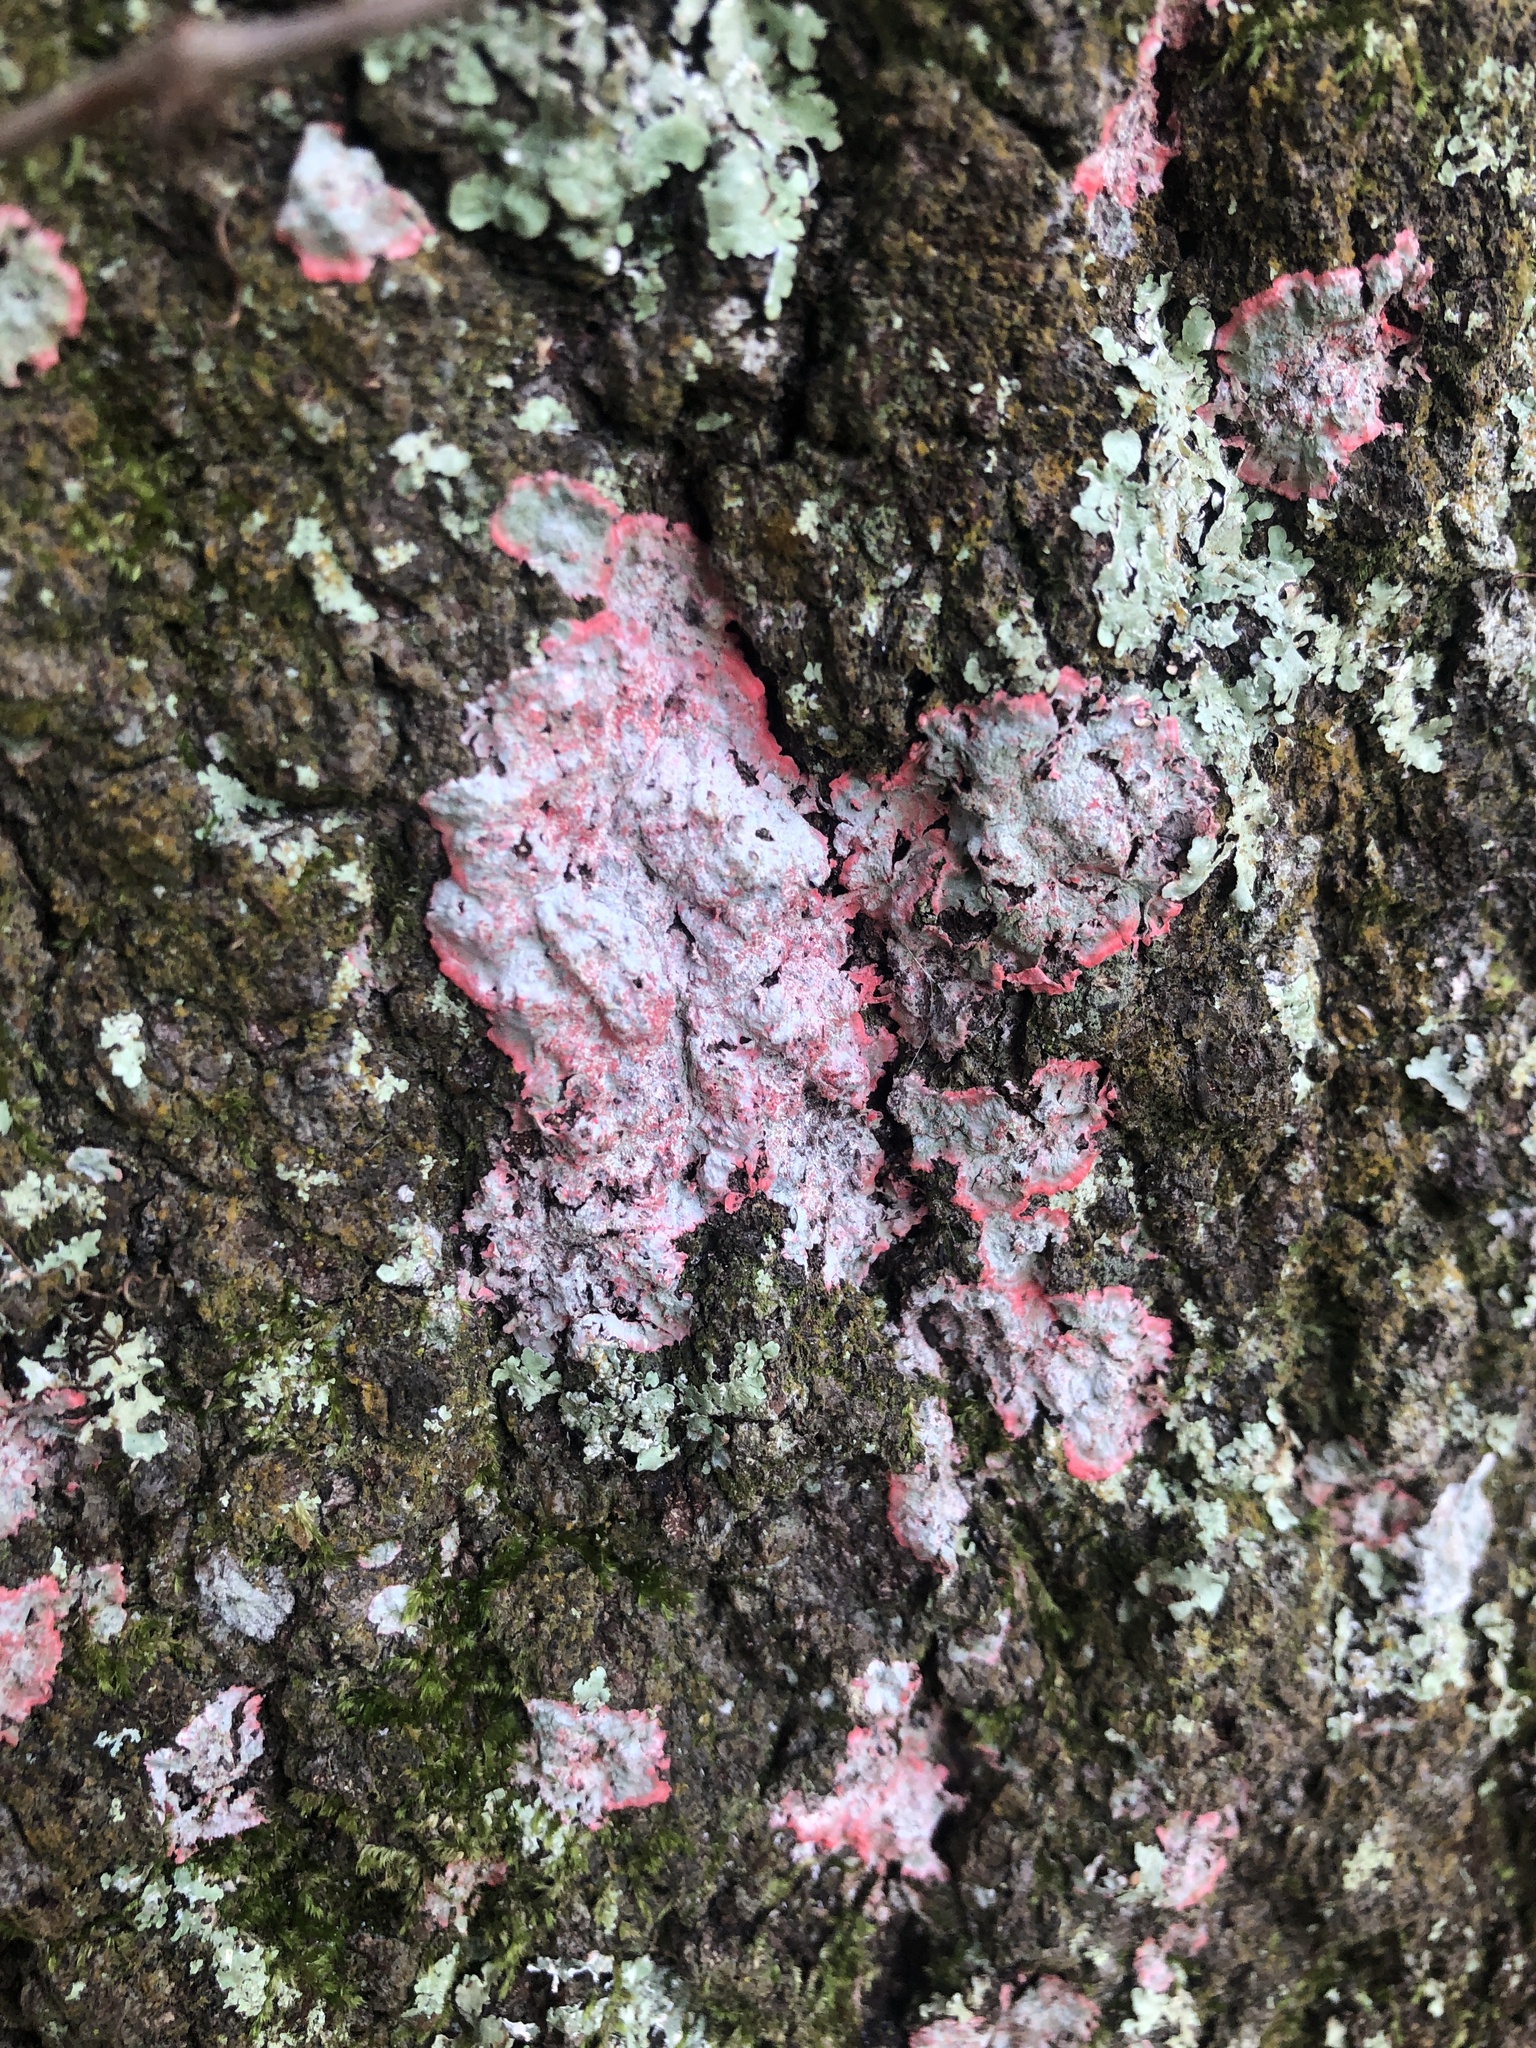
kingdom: Fungi
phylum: Ascomycota
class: Arthoniomycetes
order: Arthoniales
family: Arthoniaceae
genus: Herpothallon
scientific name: Herpothallon rubrocinctum
